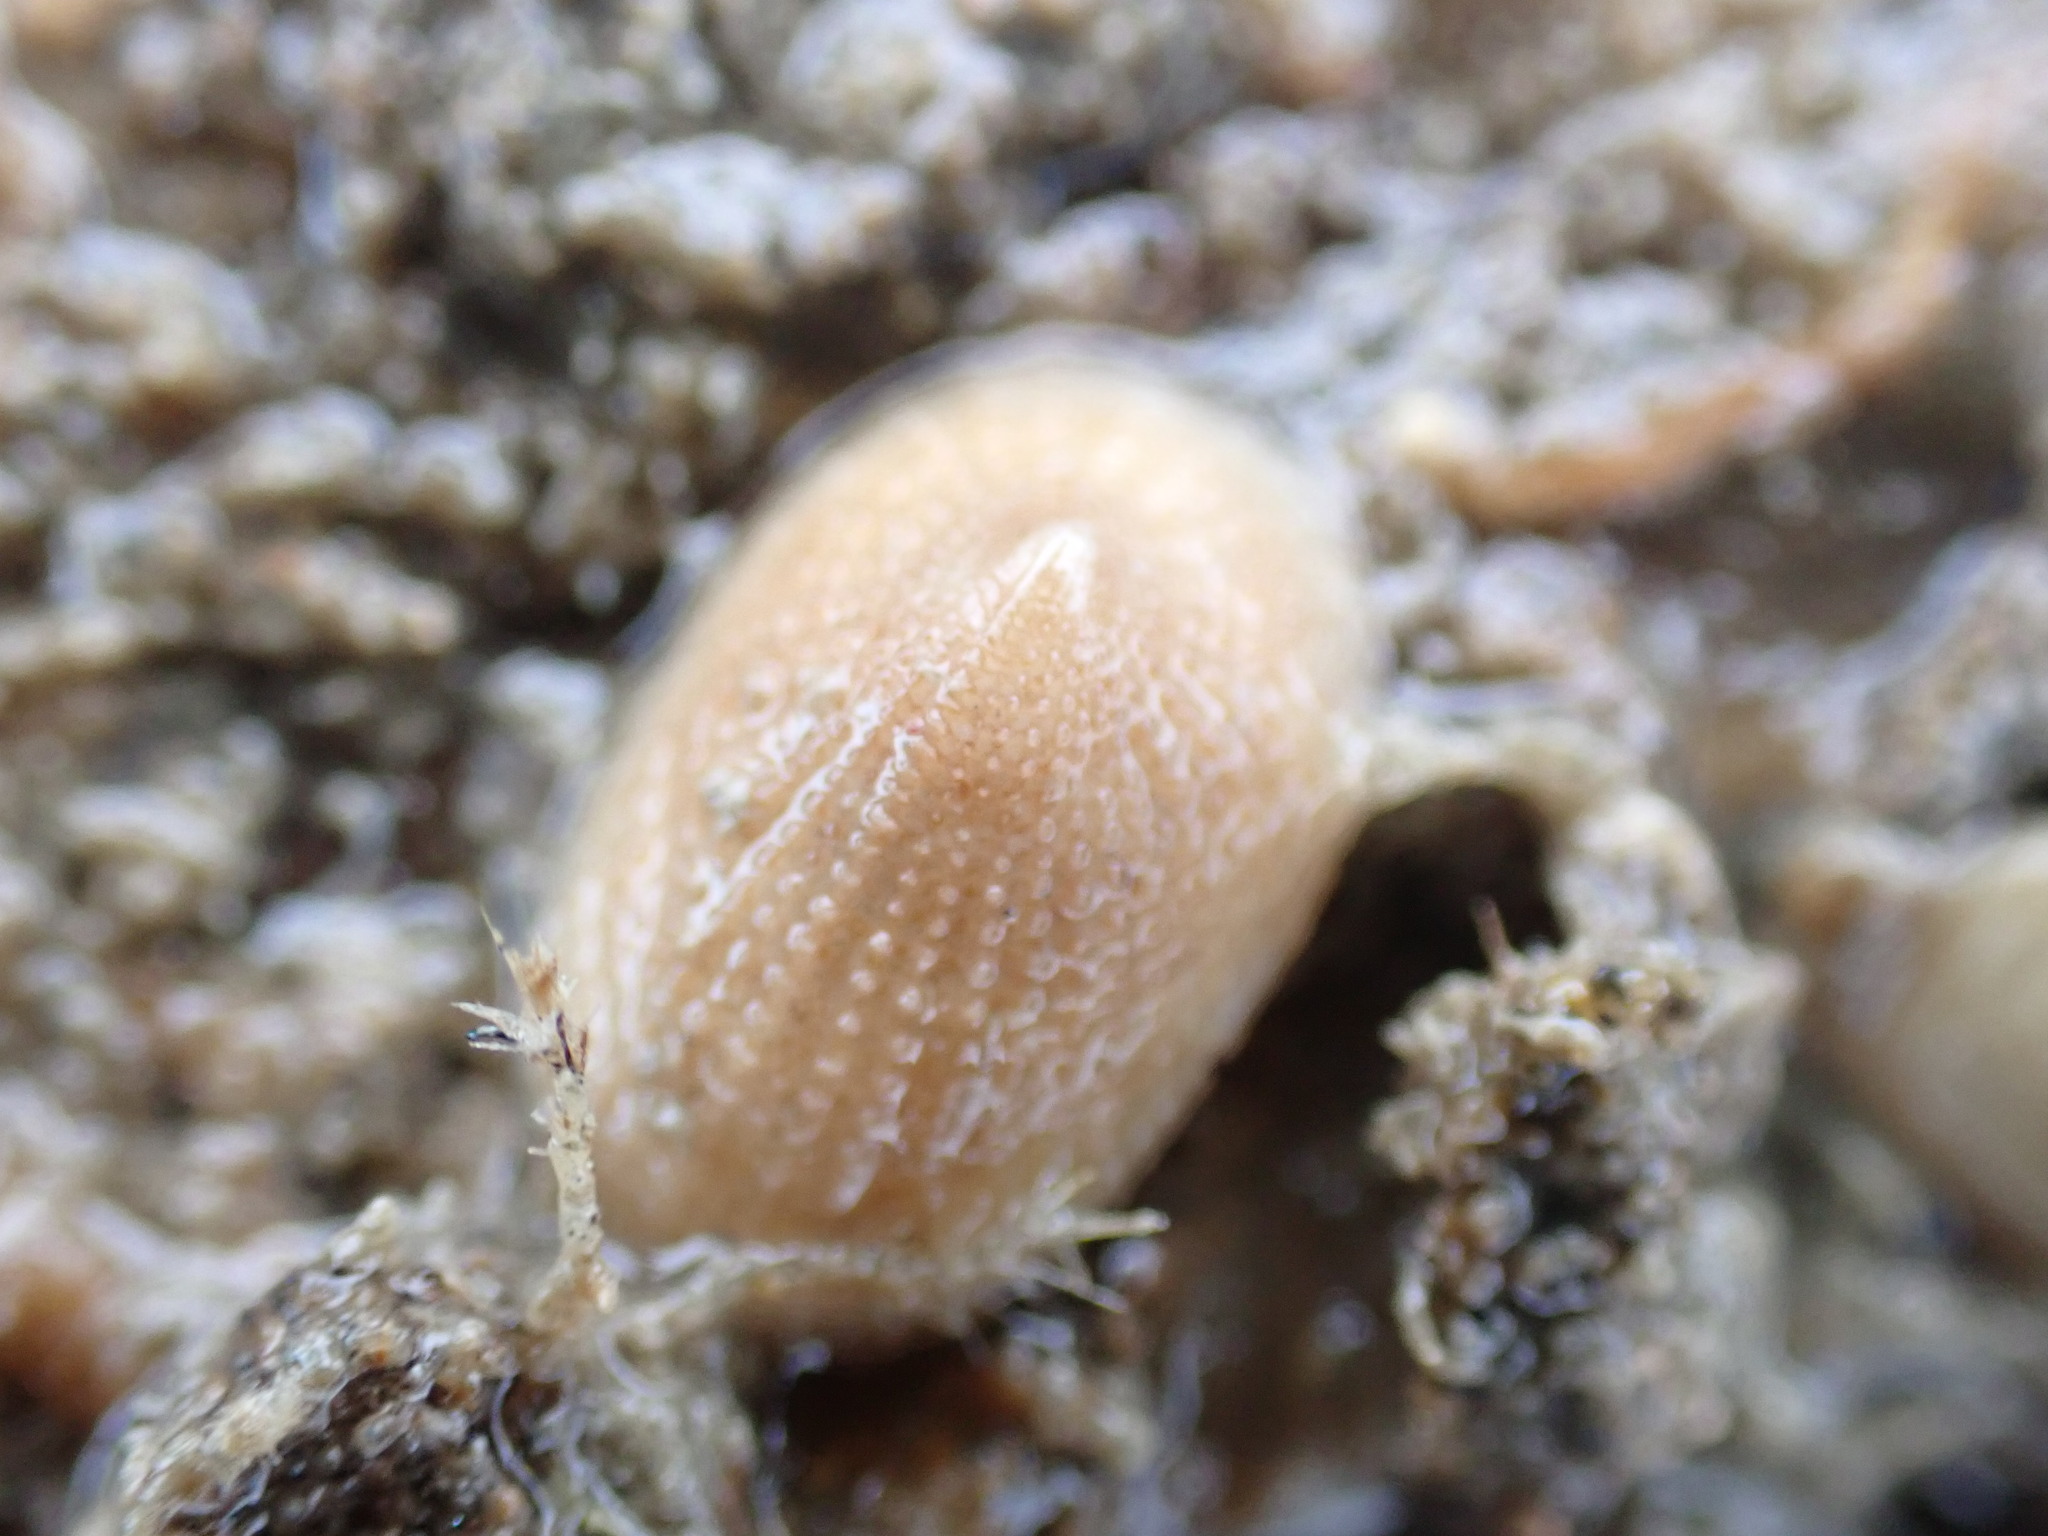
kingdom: Animalia
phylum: Mollusca
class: Gastropoda
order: Lepetellida
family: Fissurellidae
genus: Tugali
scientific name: Tugali suteri
